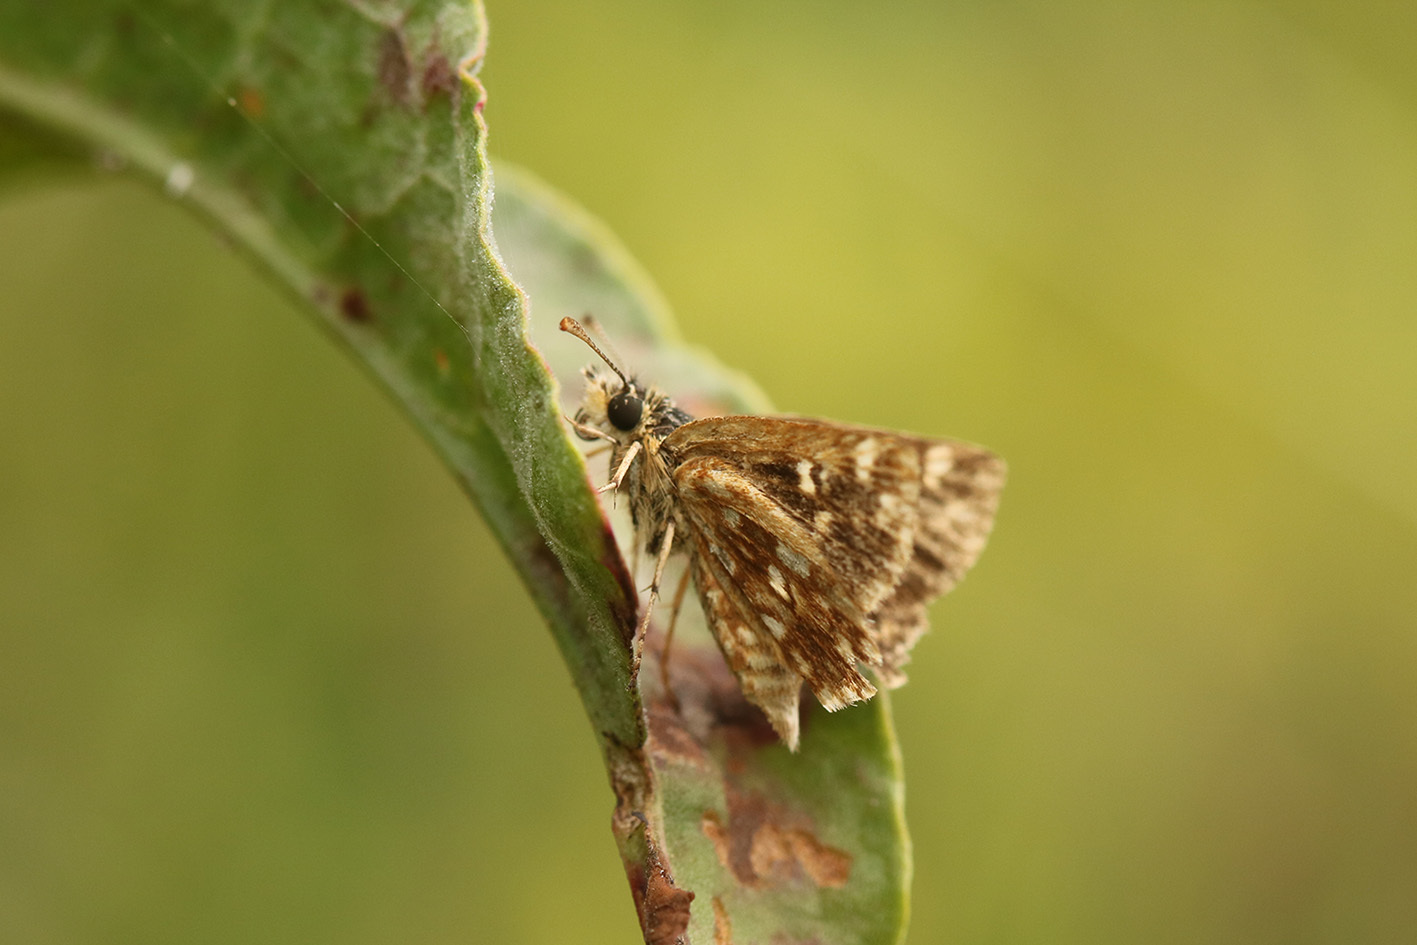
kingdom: Animalia
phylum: Arthropoda
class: Insecta
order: Lepidoptera
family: Hesperiidae
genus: Dardarina
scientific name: Dardarina
